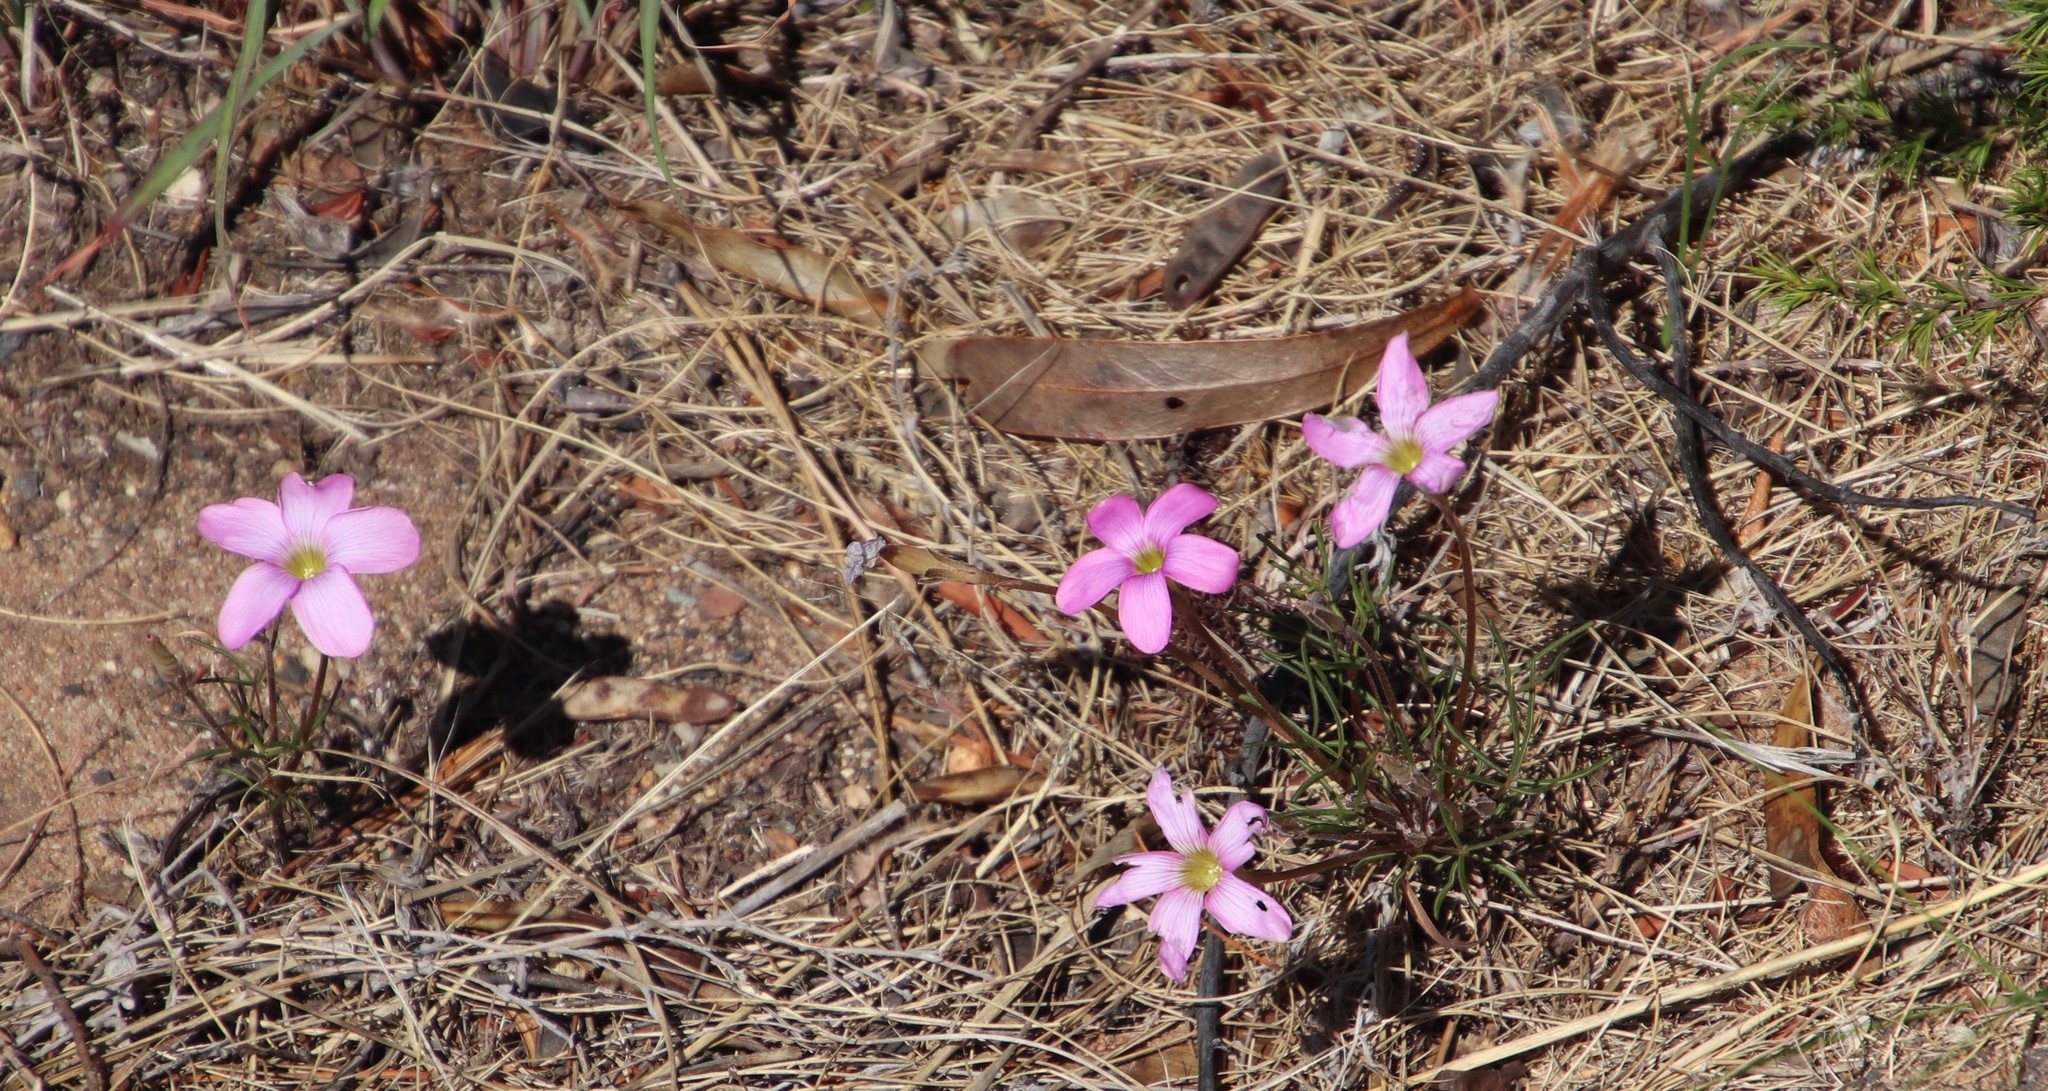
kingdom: Plantae
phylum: Tracheophyta
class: Magnoliopsida
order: Oxalidales
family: Oxalidaceae
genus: Oxalis
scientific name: Oxalis polyphylla
